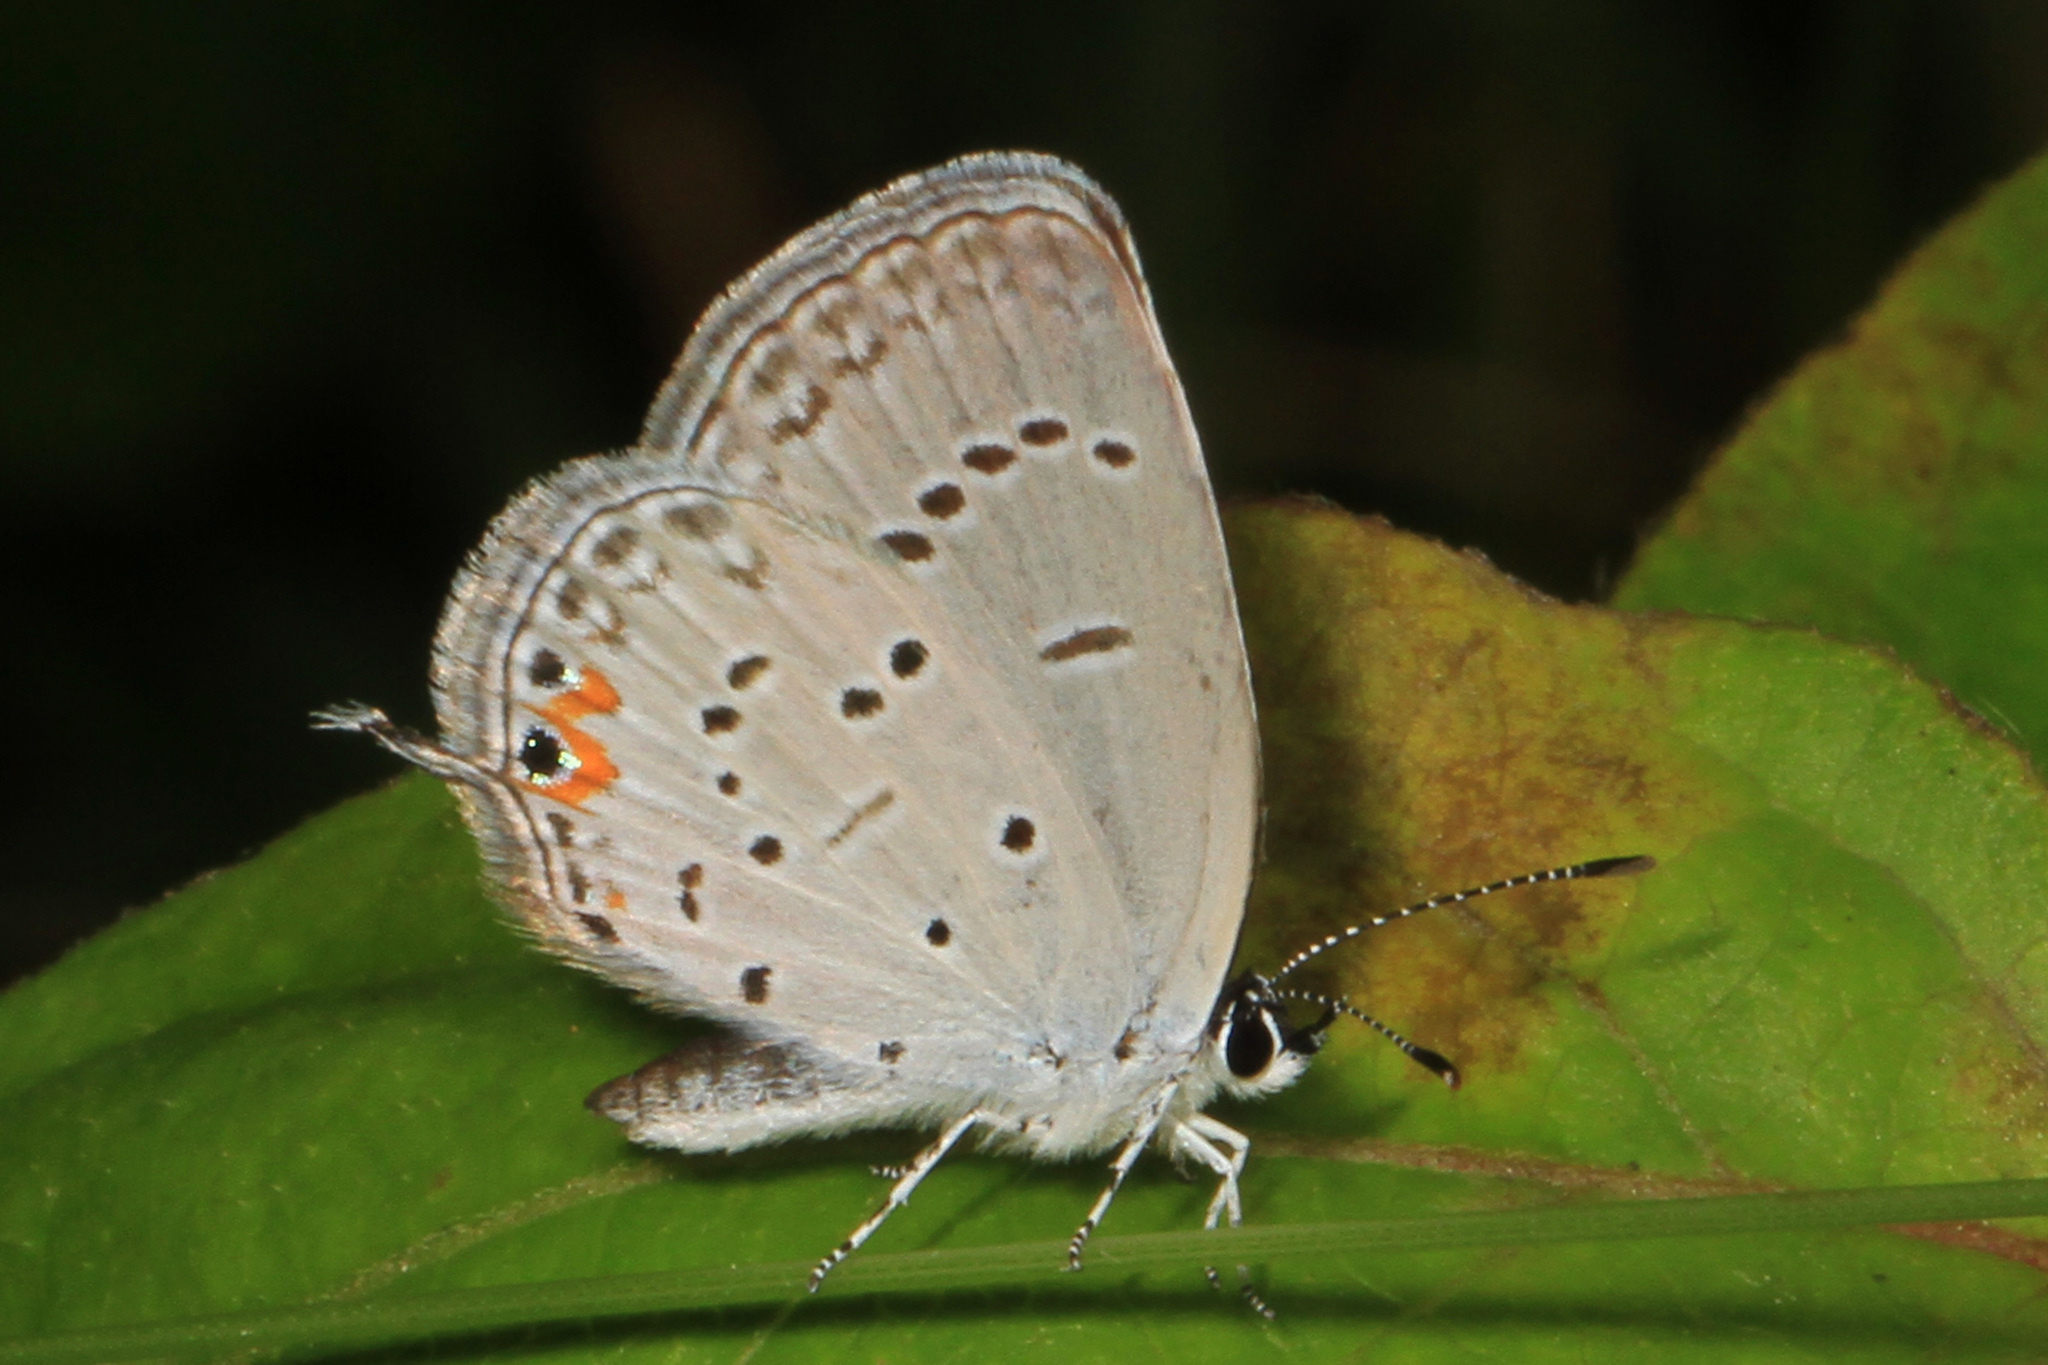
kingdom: Animalia
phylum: Arthropoda
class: Insecta
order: Lepidoptera
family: Lycaenidae
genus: Elkalyce
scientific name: Elkalyce comyntas
